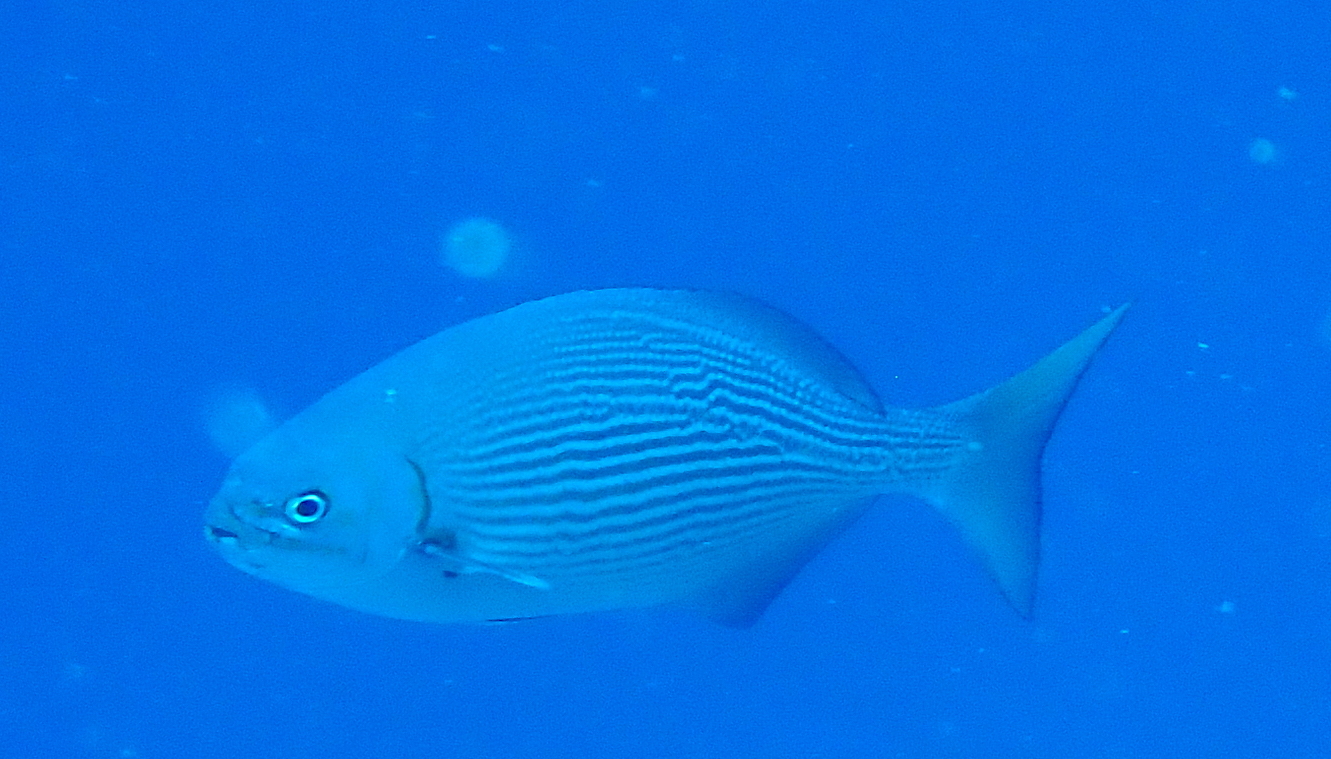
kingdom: Animalia
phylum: Chordata
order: Perciformes
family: Kyphosidae
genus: Kyphosus
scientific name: Kyphosus vaigiensis
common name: Brassy chub
